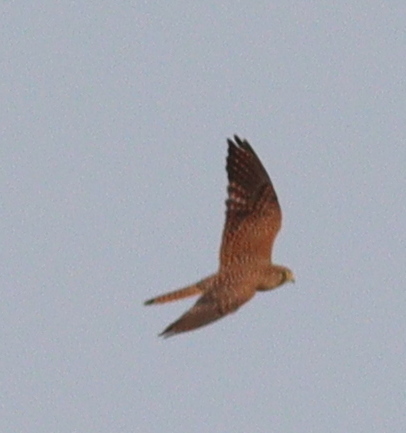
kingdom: Animalia
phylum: Chordata
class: Aves
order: Falconiformes
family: Falconidae
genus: Falco
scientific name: Falco tinnunculus
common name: Common kestrel
